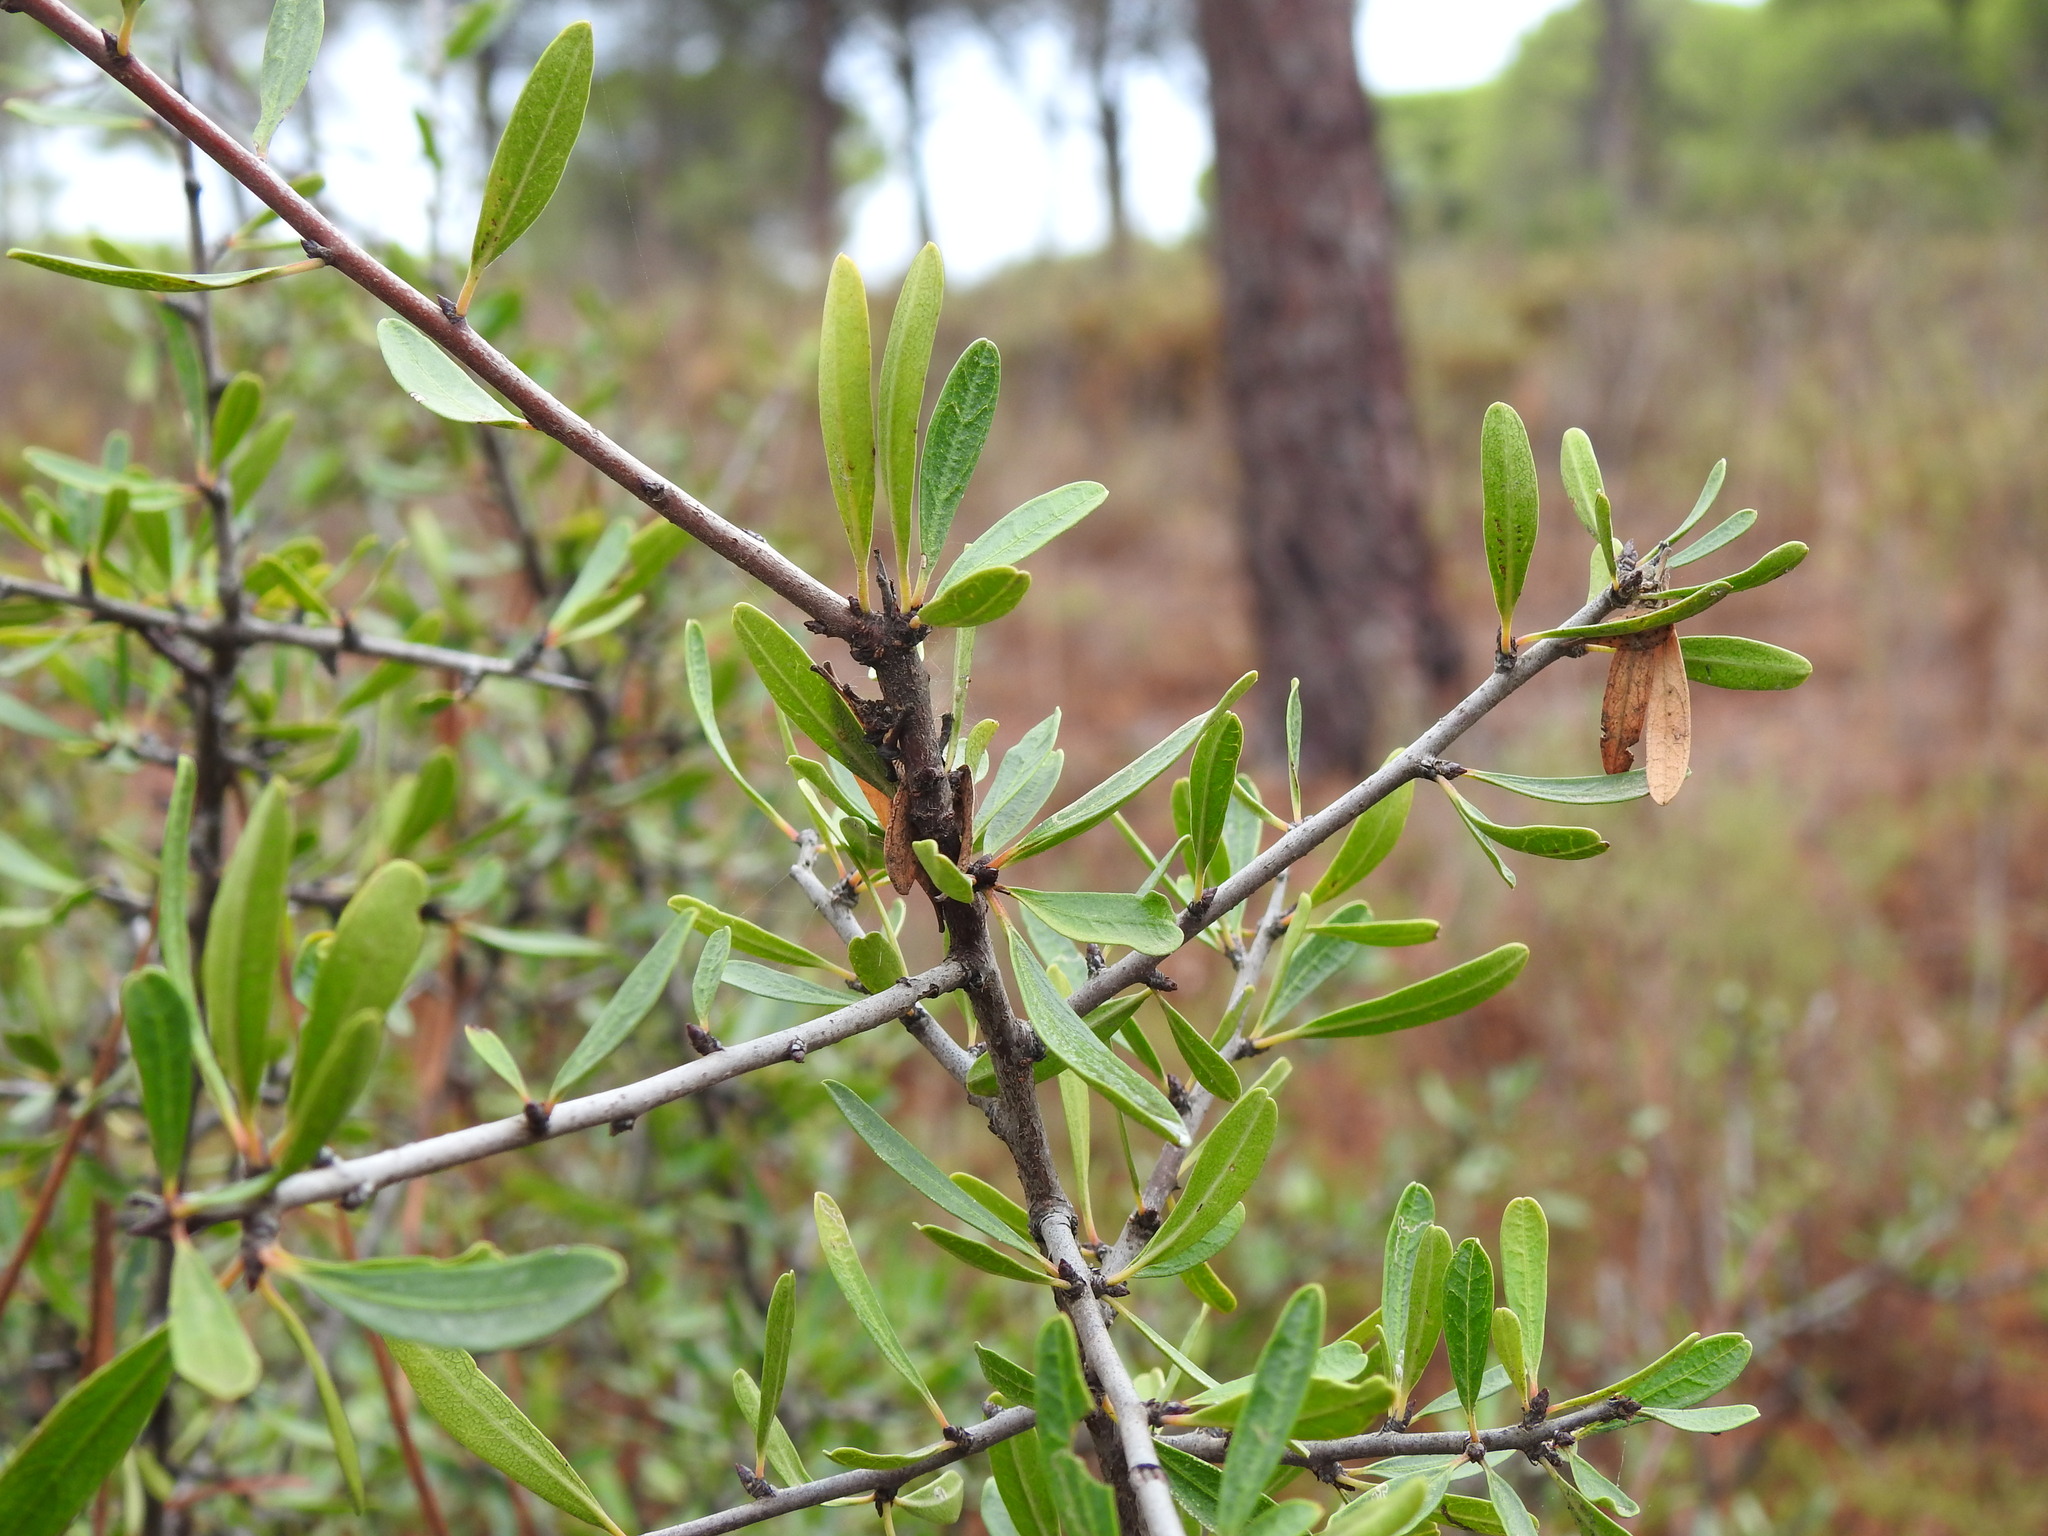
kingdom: Plantae
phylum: Tracheophyta
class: Magnoliopsida
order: Rosales
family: Rhamnaceae
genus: Rhamnus
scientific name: Rhamnus oleoides
